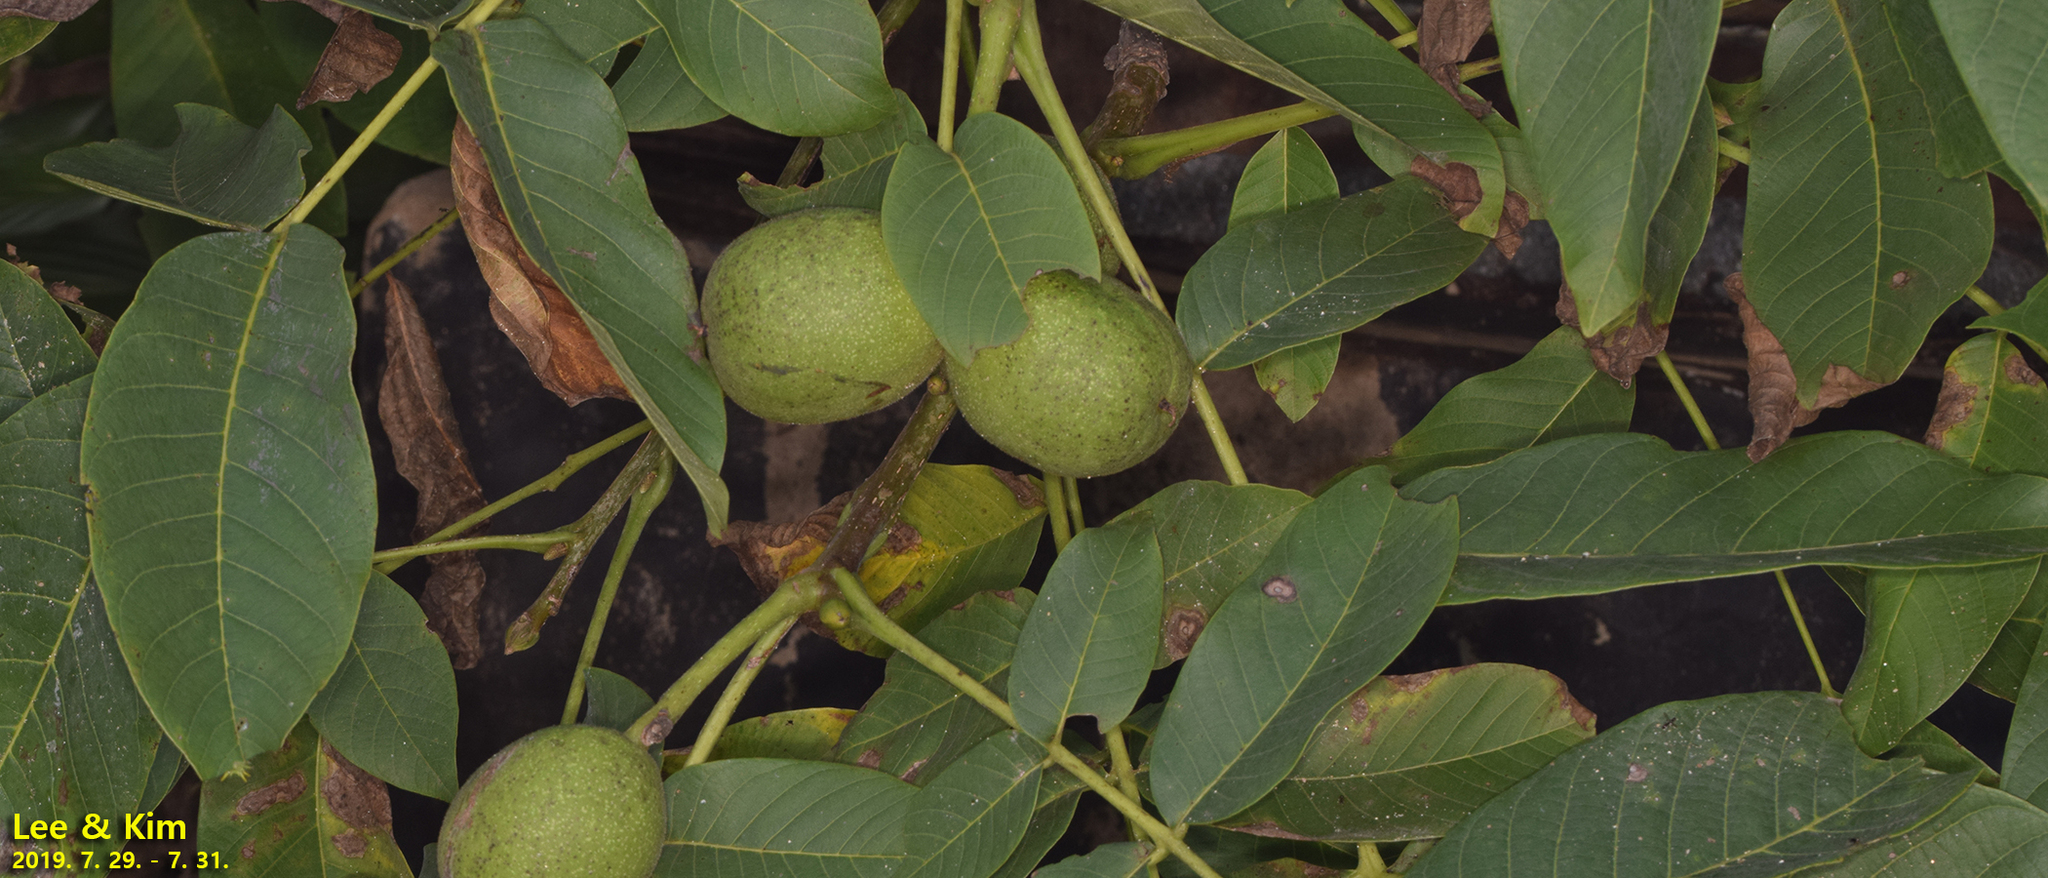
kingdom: Plantae
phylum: Tracheophyta
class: Magnoliopsida
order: Fagales
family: Juglandaceae
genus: Juglans
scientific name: Juglans regia
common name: Walnut
